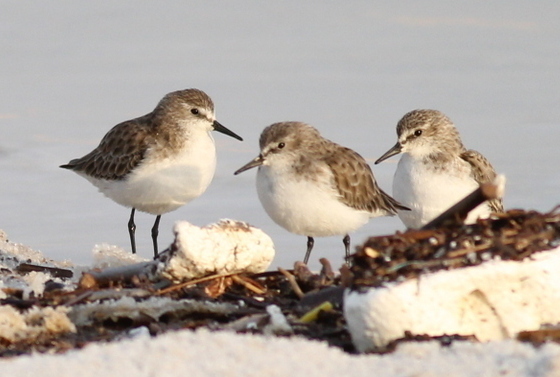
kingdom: Animalia
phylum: Chordata
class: Aves
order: Charadriiformes
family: Scolopacidae
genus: Calidris
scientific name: Calidris minuta
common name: Little stint
